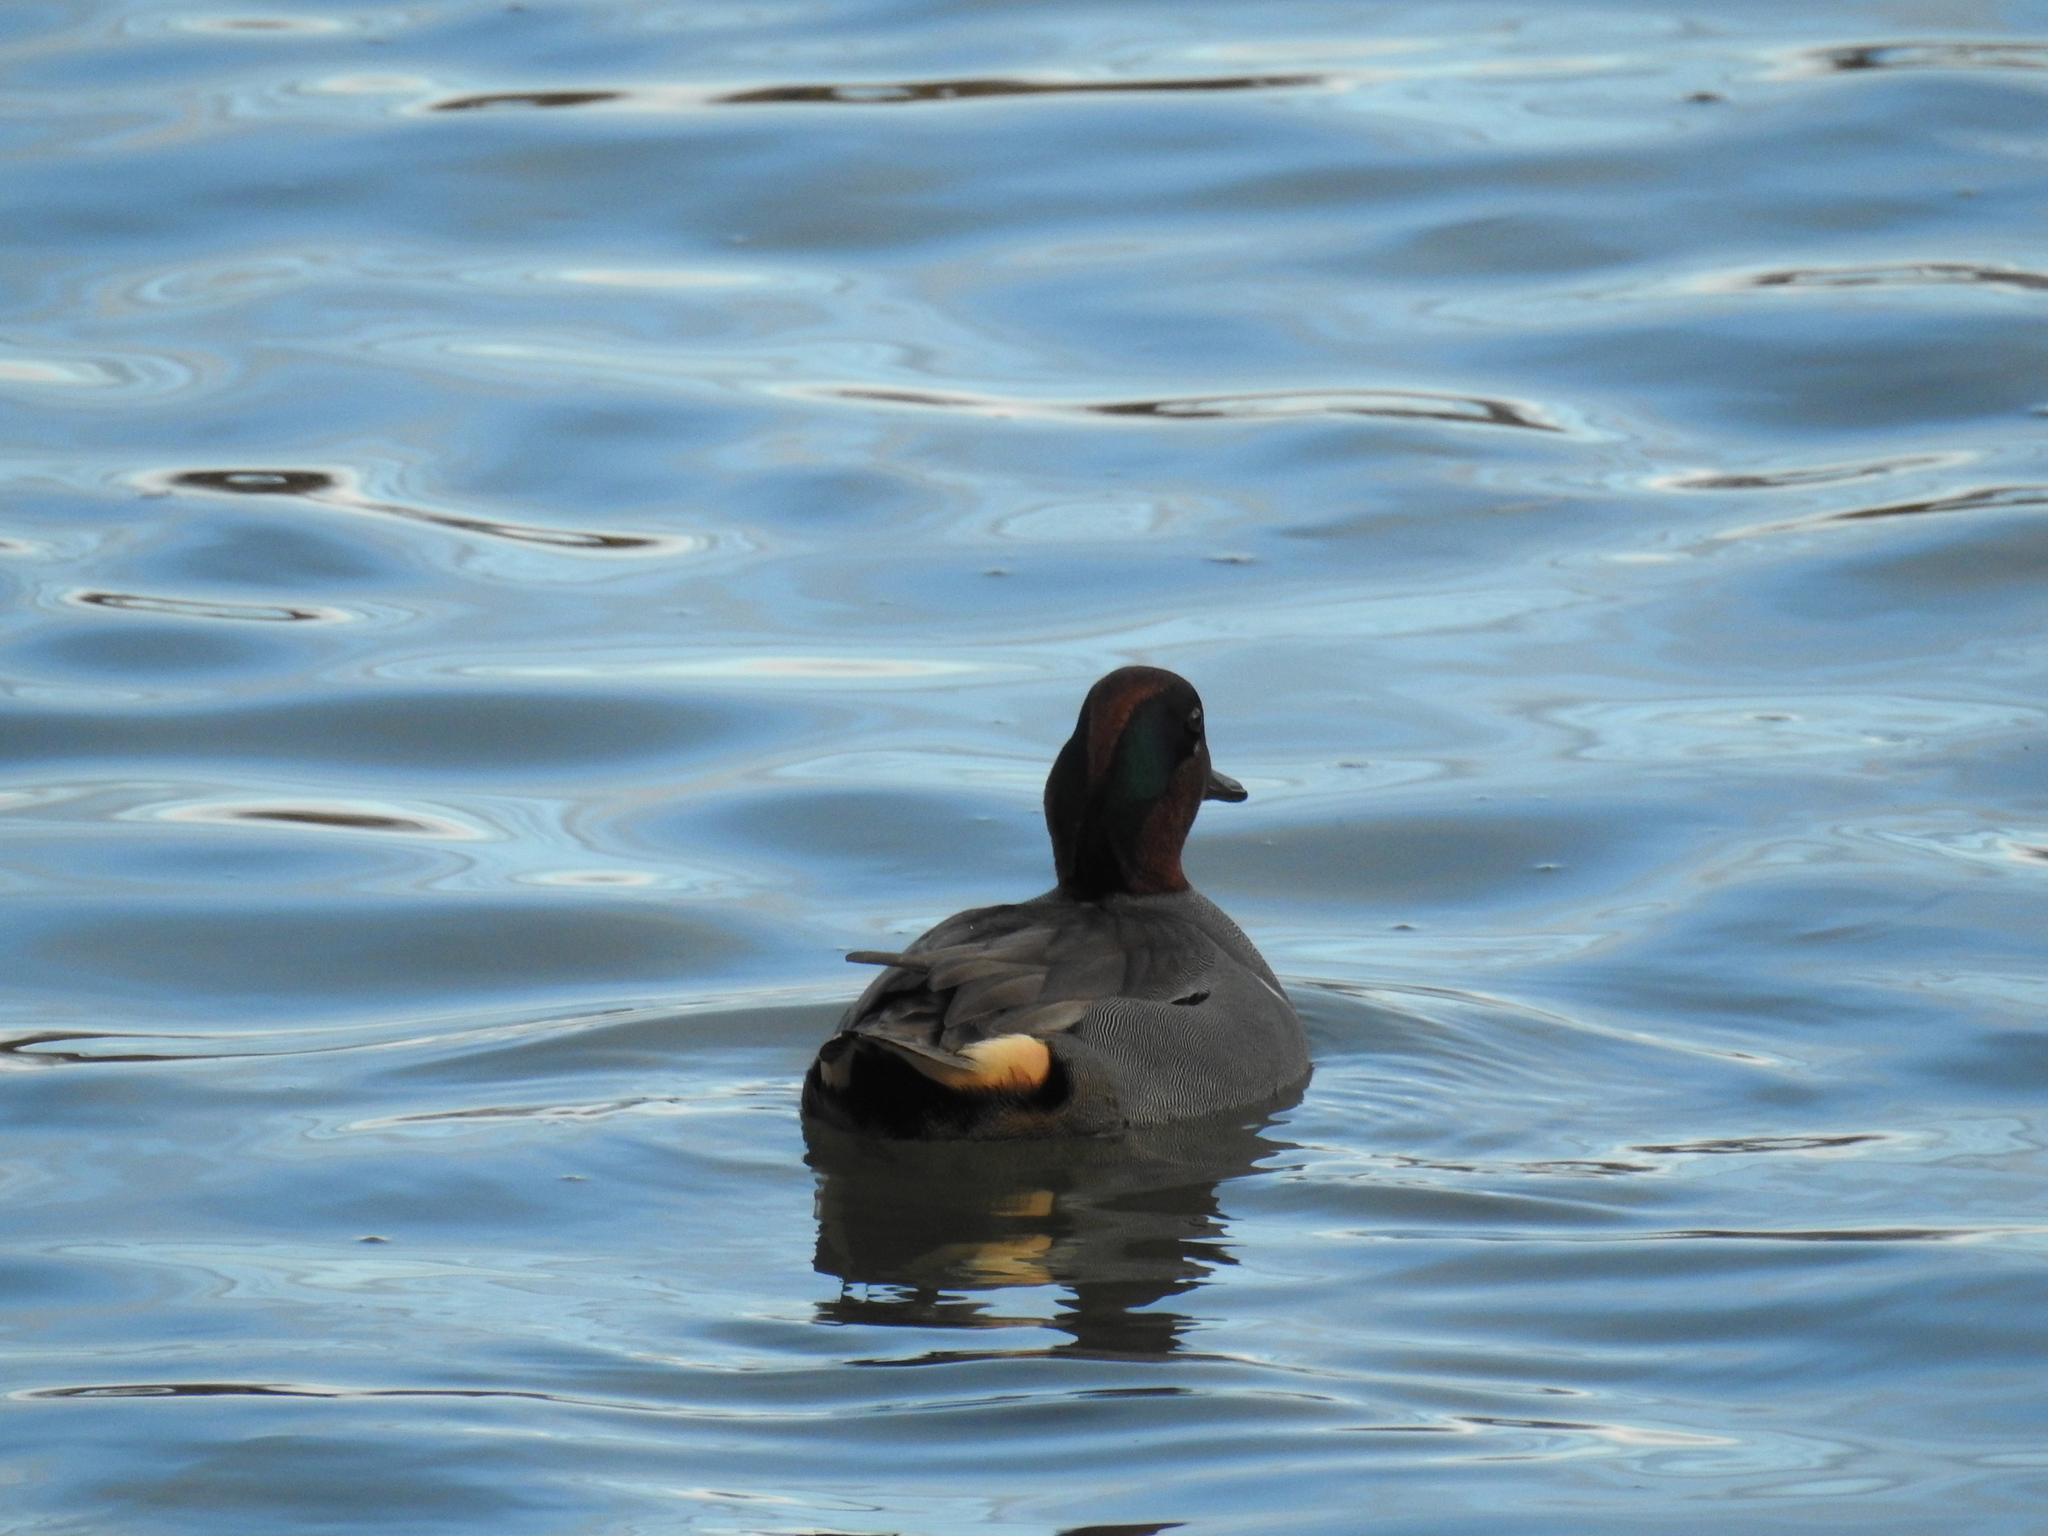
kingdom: Animalia
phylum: Chordata
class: Aves
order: Anseriformes
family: Anatidae
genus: Anas
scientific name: Anas crecca
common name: Eurasian teal
